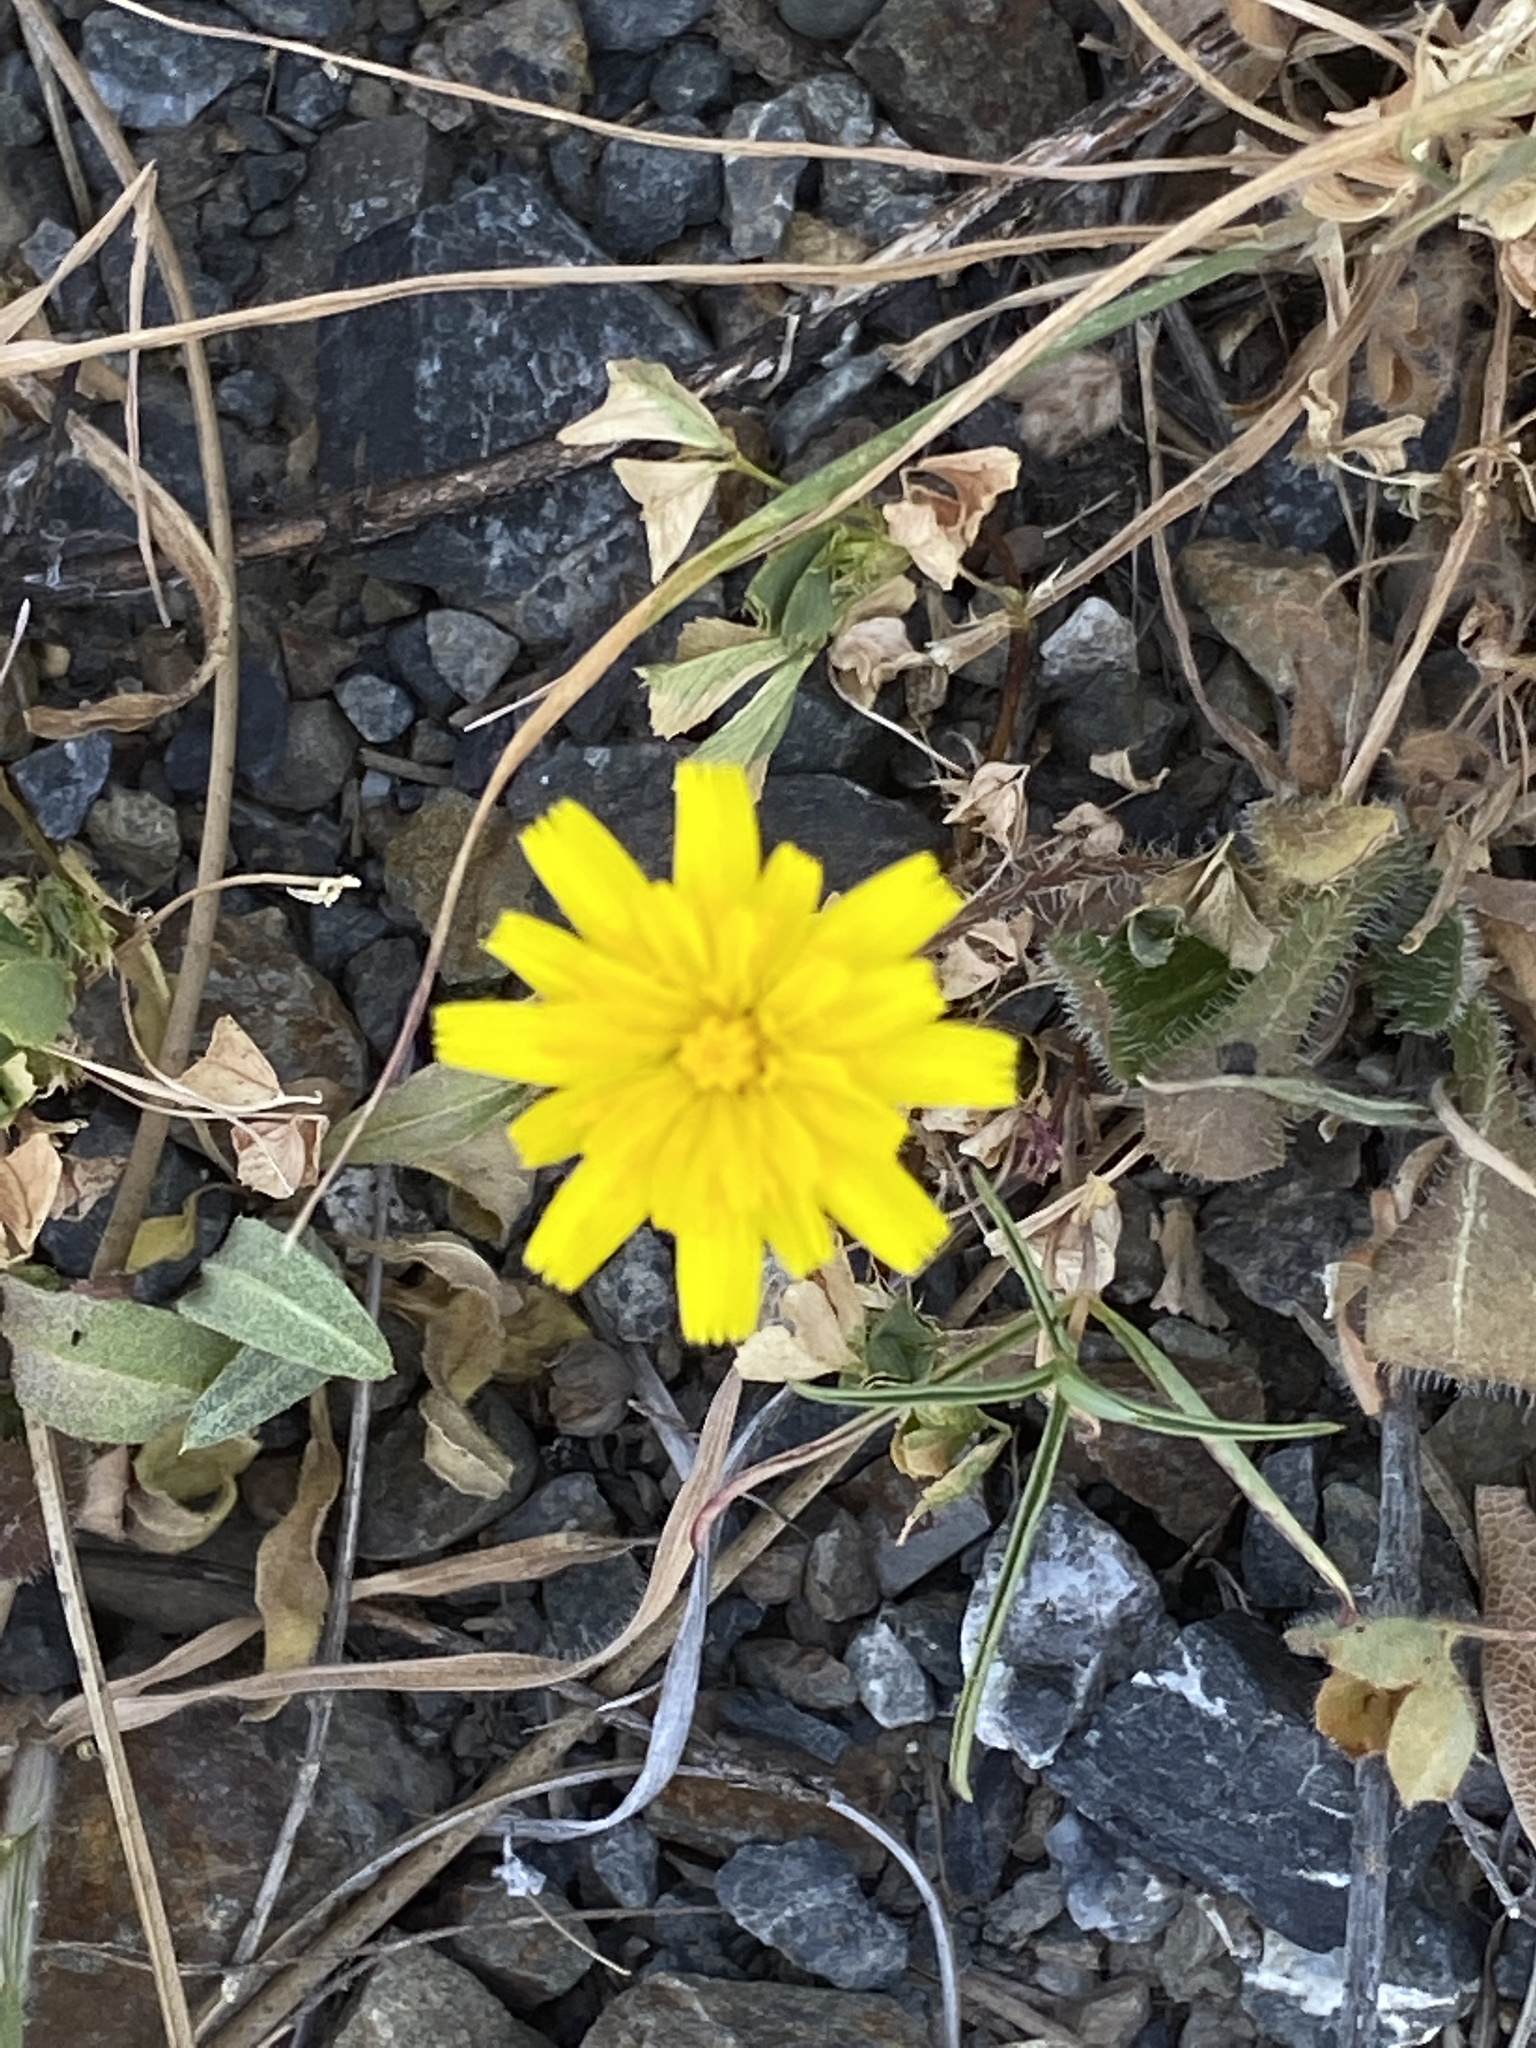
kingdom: Plantae
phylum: Tracheophyta
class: Magnoliopsida
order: Asterales
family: Asteraceae
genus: Hypochaeris
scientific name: Hypochaeris radicata
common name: Flatweed
